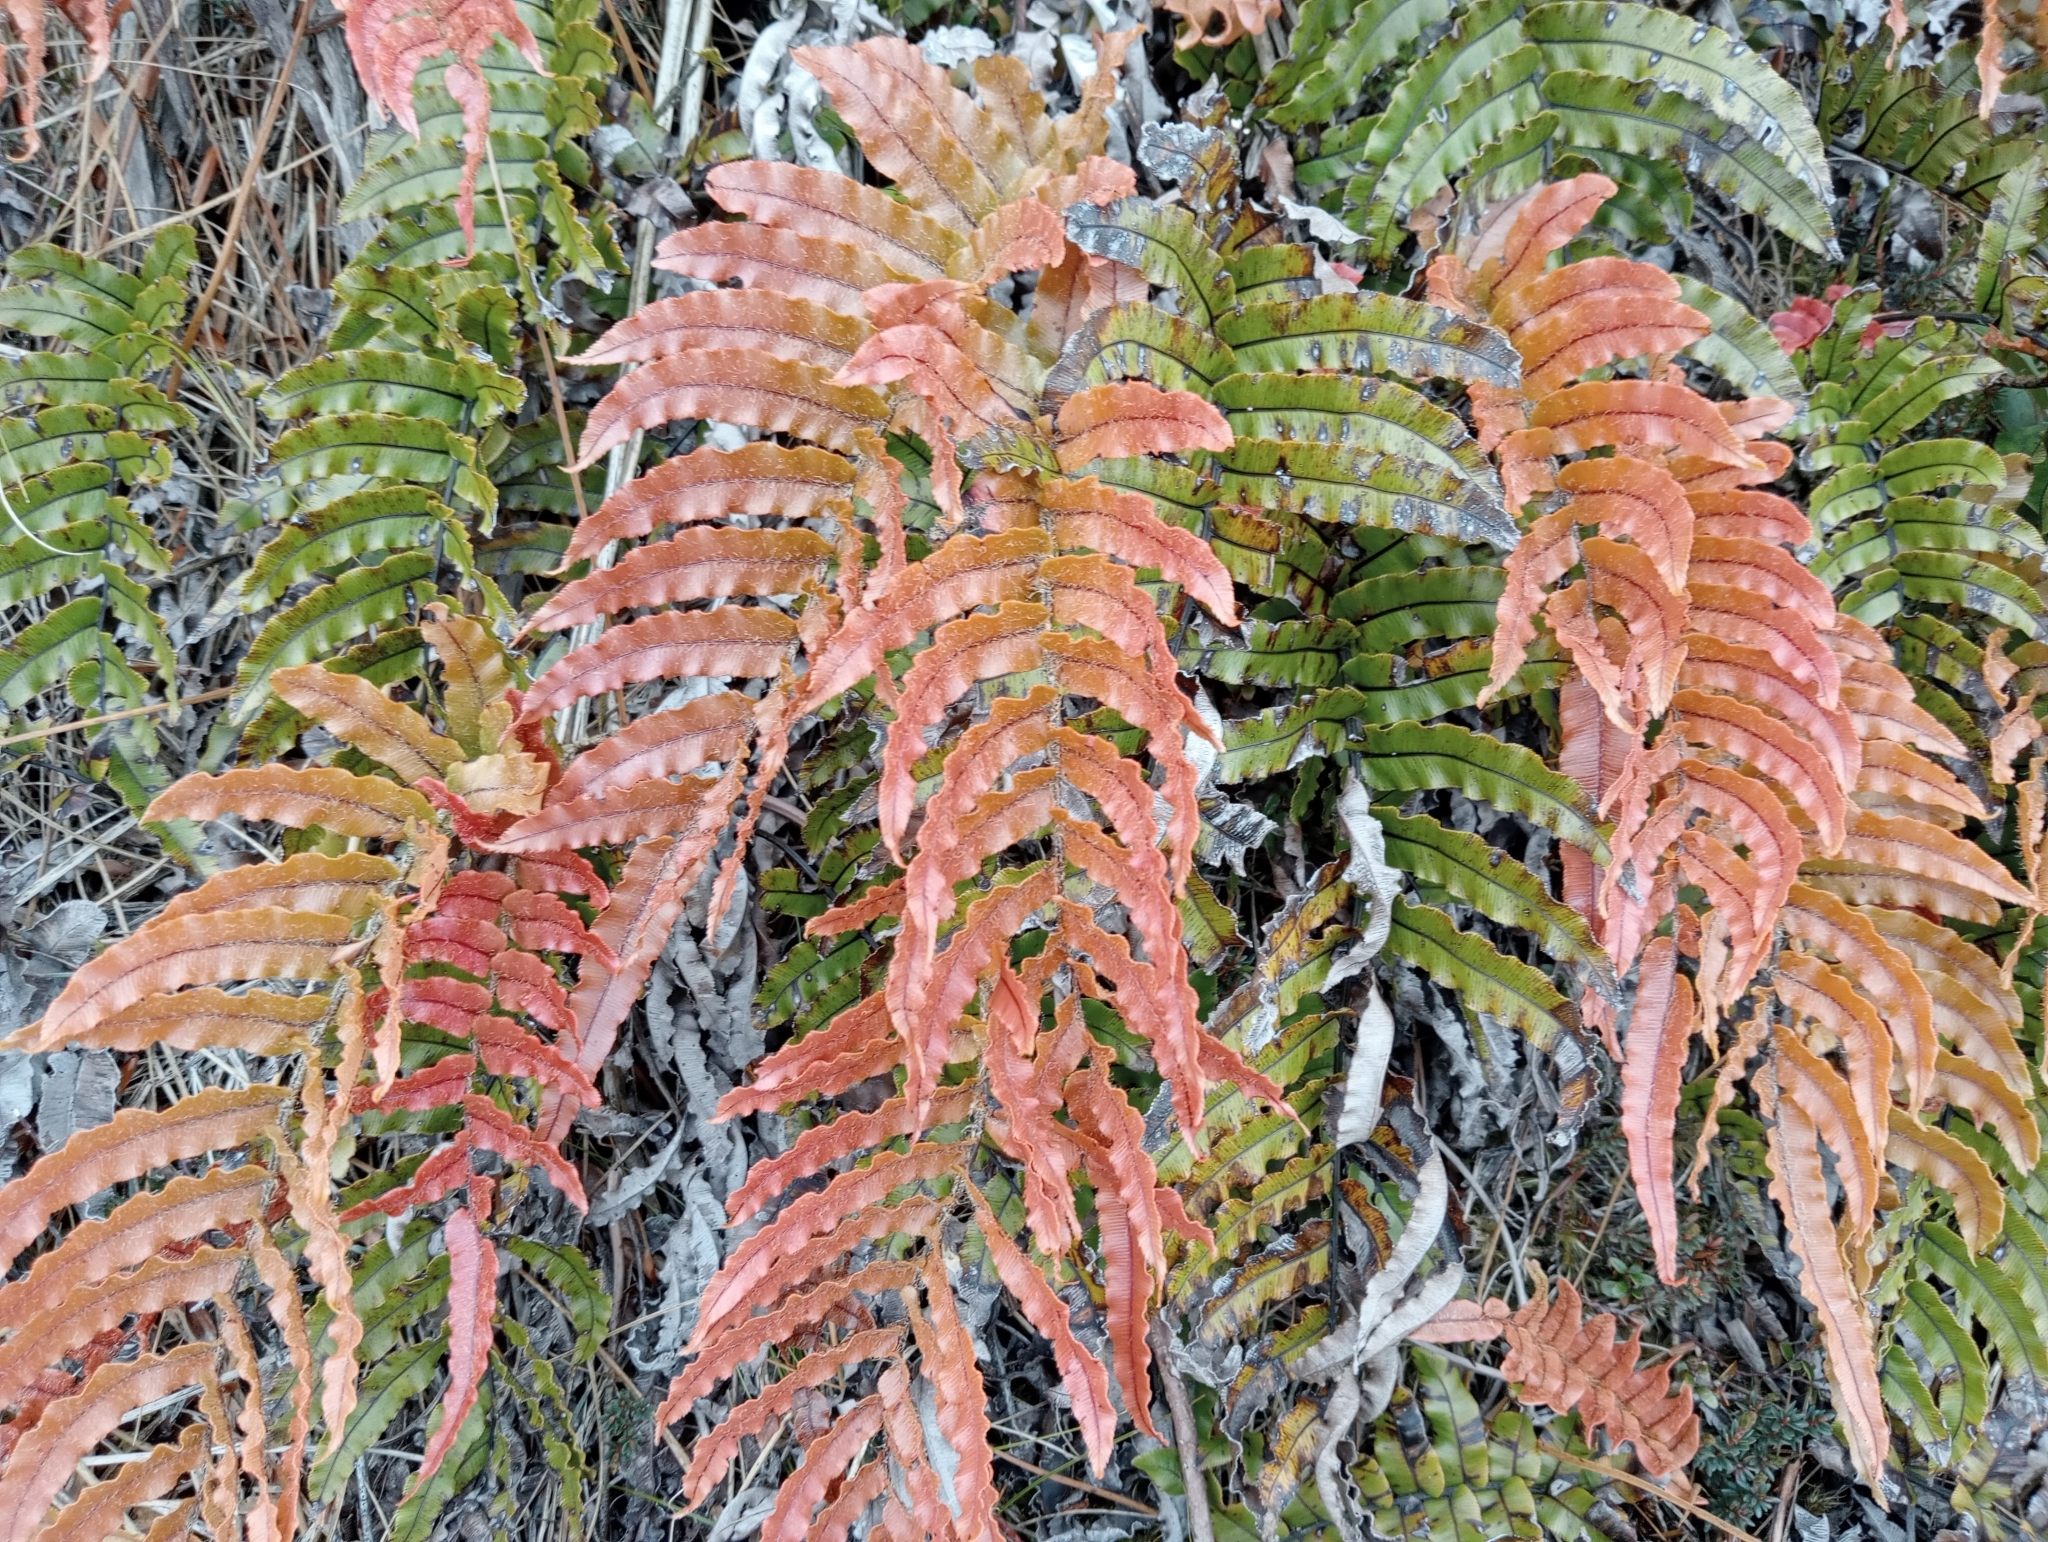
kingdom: Plantae
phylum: Tracheophyta
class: Polypodiopsida
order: Polypodiales
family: Blechnaceae
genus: Parablechnum
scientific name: Parablechnum montanum
